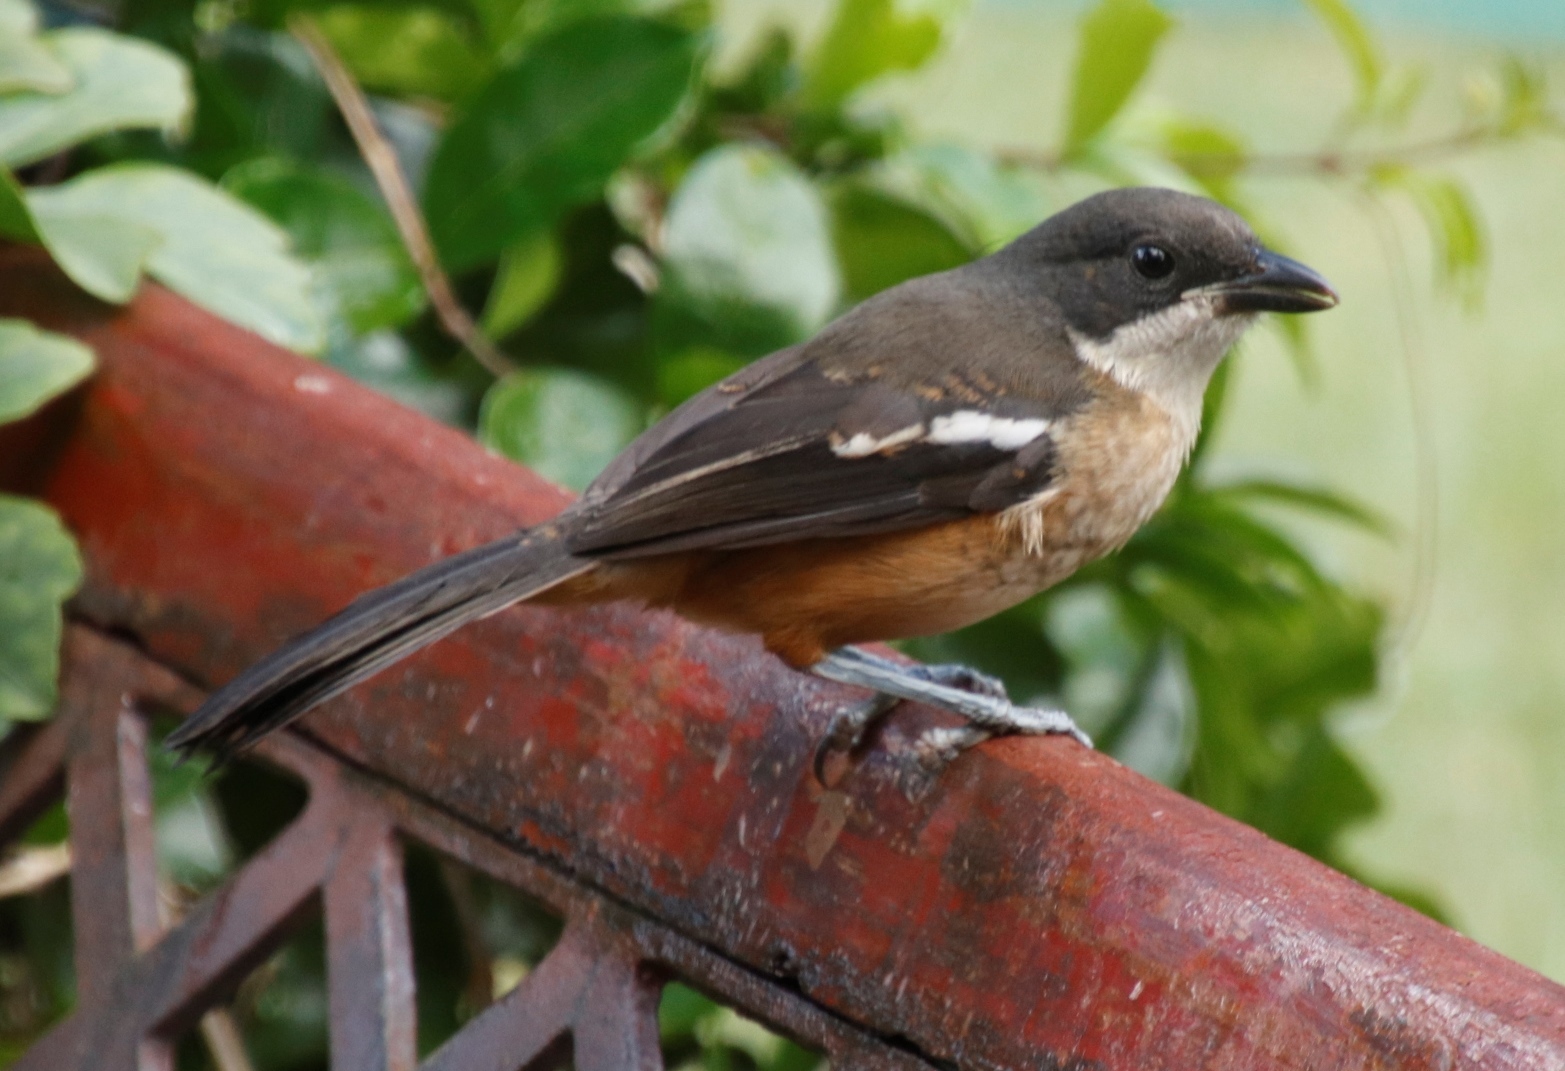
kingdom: Animalia
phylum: Chordata
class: Aves
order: Passeriformes
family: Malaconotidae
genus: Laniarius
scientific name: Laniarius ferrugineus
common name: Southern boubou
